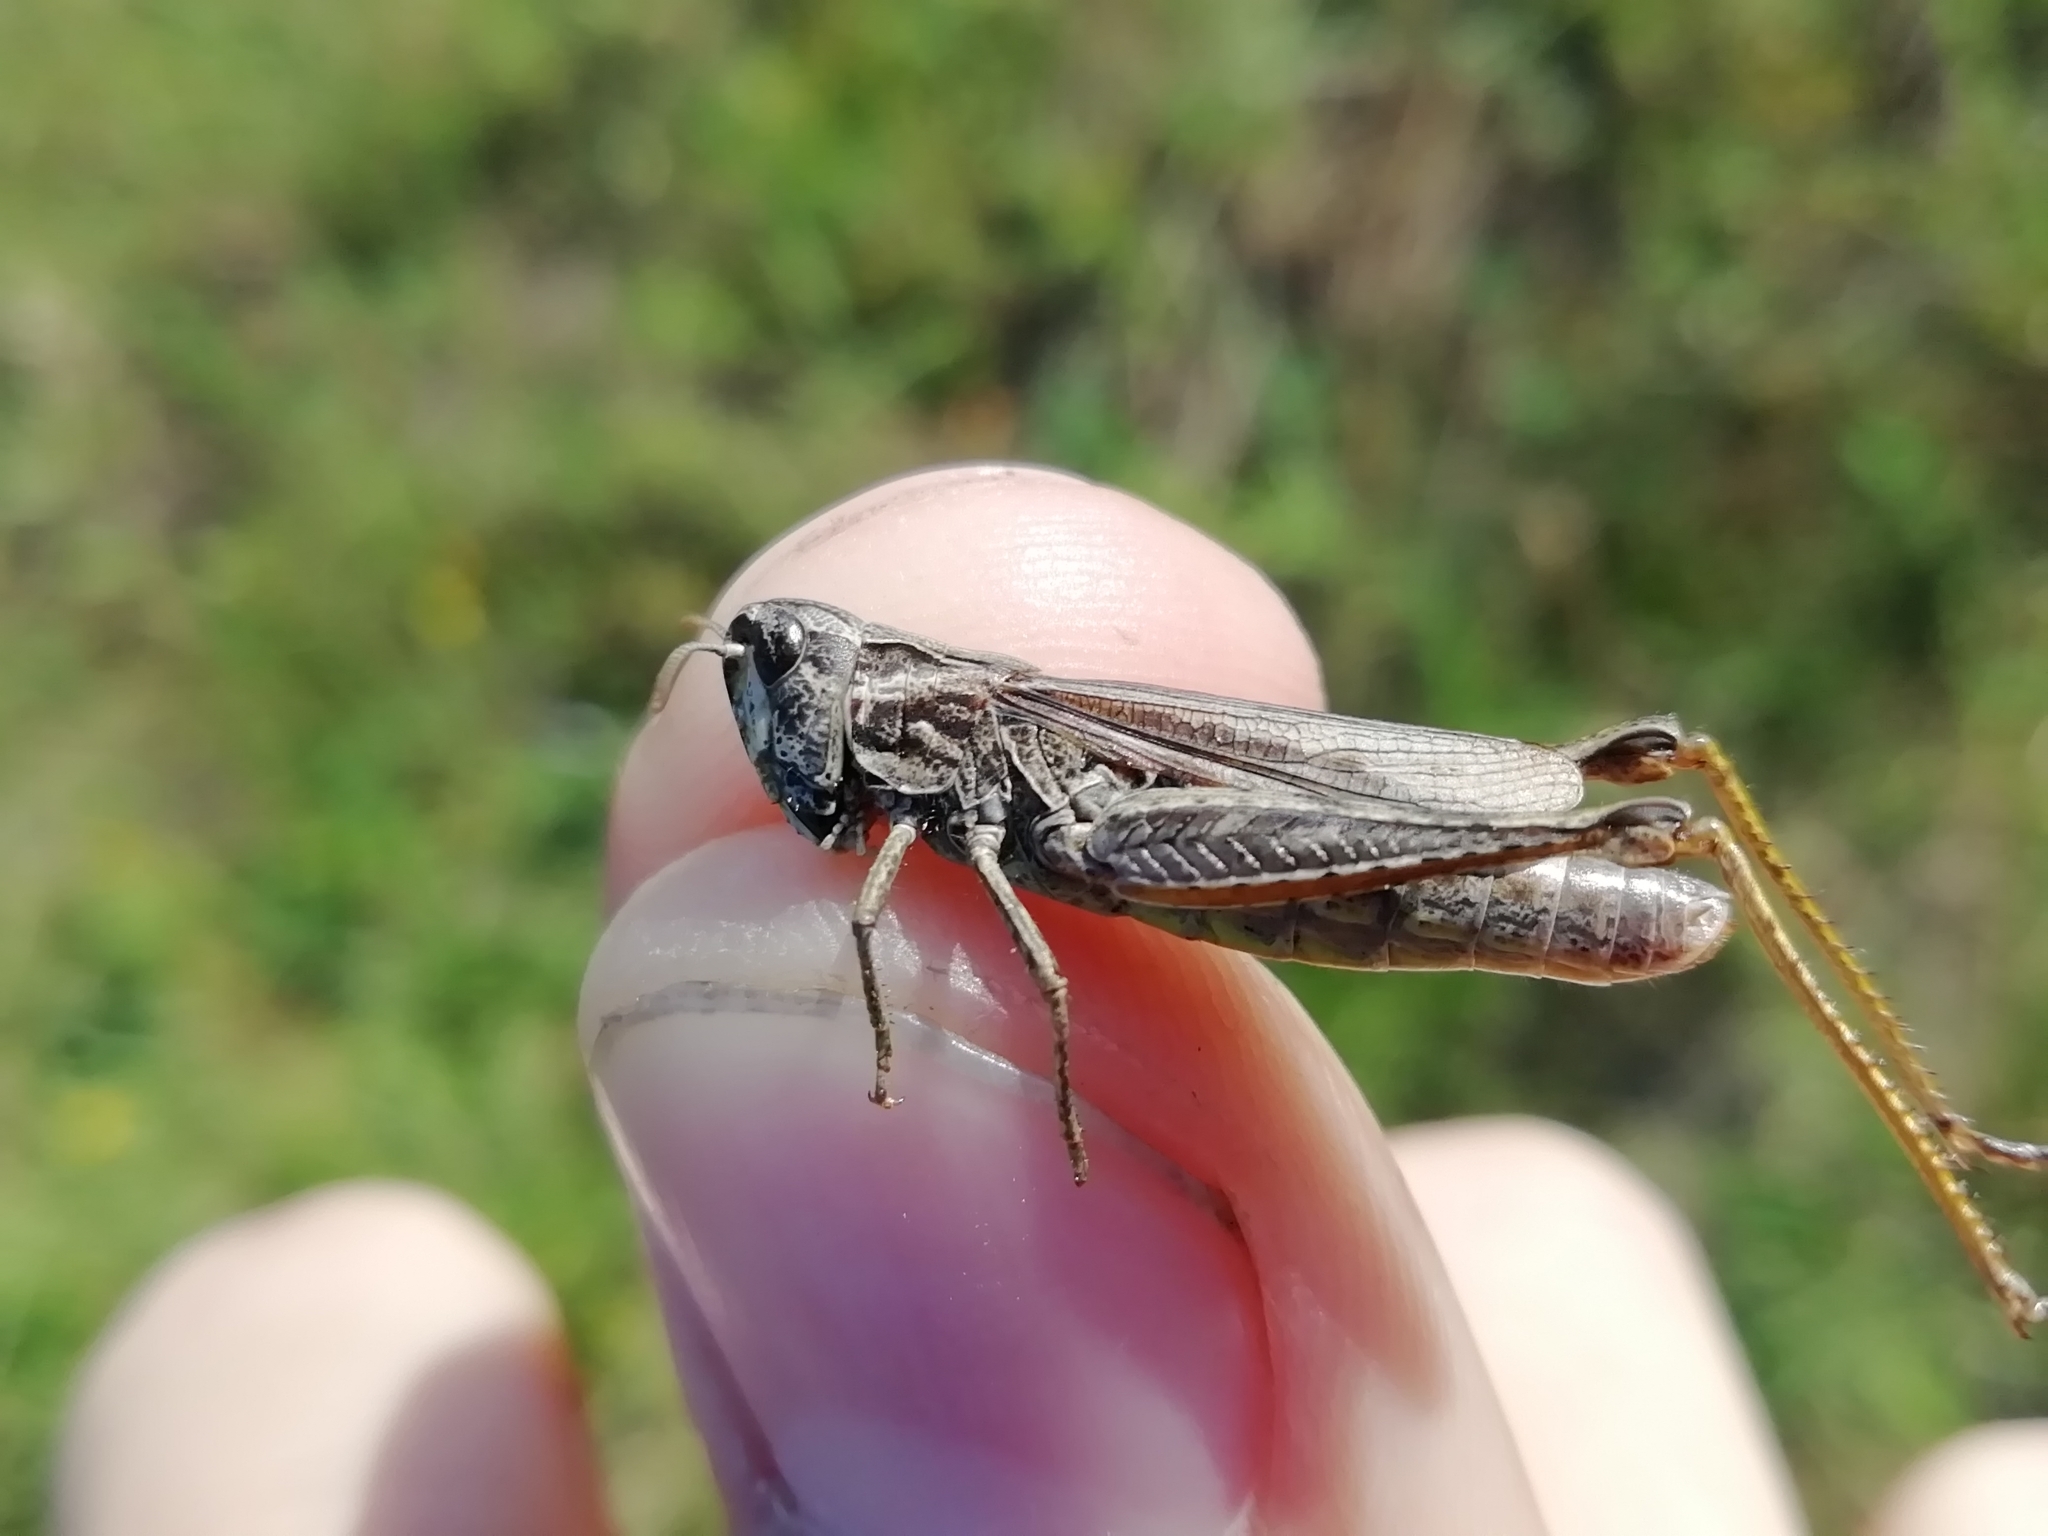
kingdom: Animalia
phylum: Arthropoda
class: Insecta
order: Orthoptera
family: Acrididae
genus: Chorthippus
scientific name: Chorthippus apricarius
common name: Upland field grasshopper
